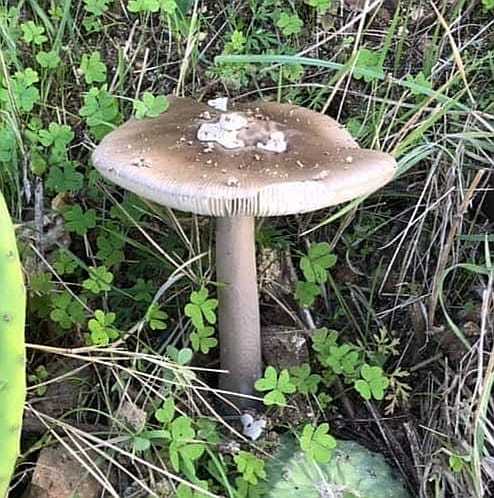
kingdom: Fungi
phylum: Basidiomycota
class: Agaricomycetes
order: Agaricales
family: Amanitaceae
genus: Amanita
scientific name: Amanita simulans
